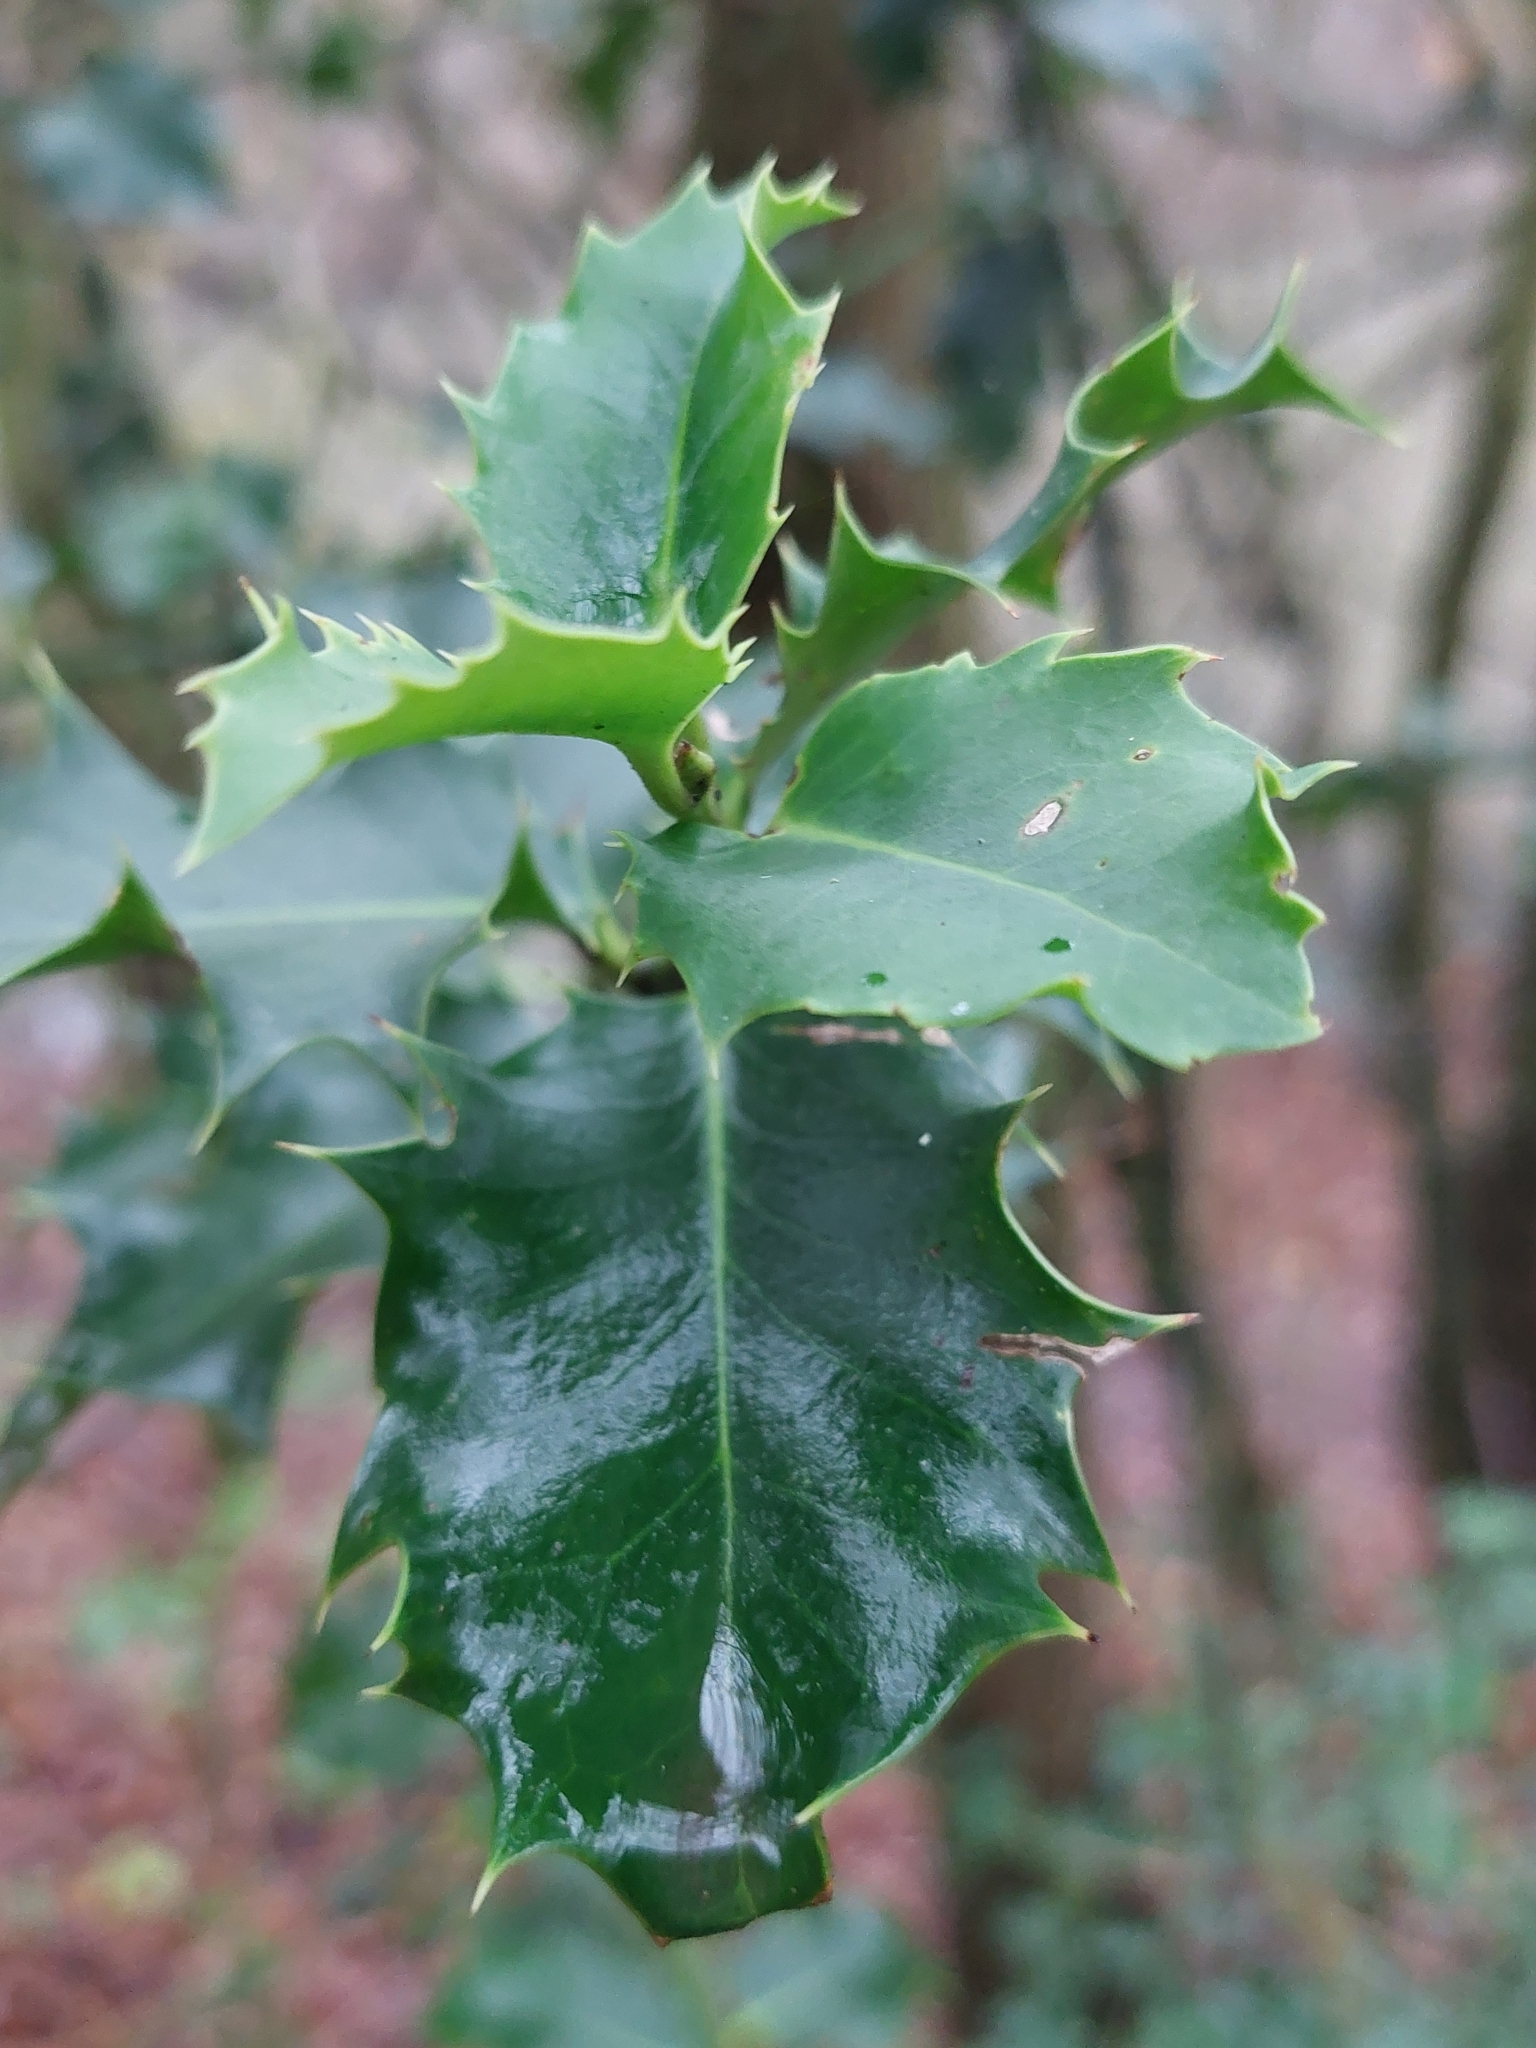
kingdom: Plantae
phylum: Tracheophyta
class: Magnoliopsida
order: Aquifoliales
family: Aquifoliaceae
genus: Ilex
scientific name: Ilex aquifolium
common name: English holly
